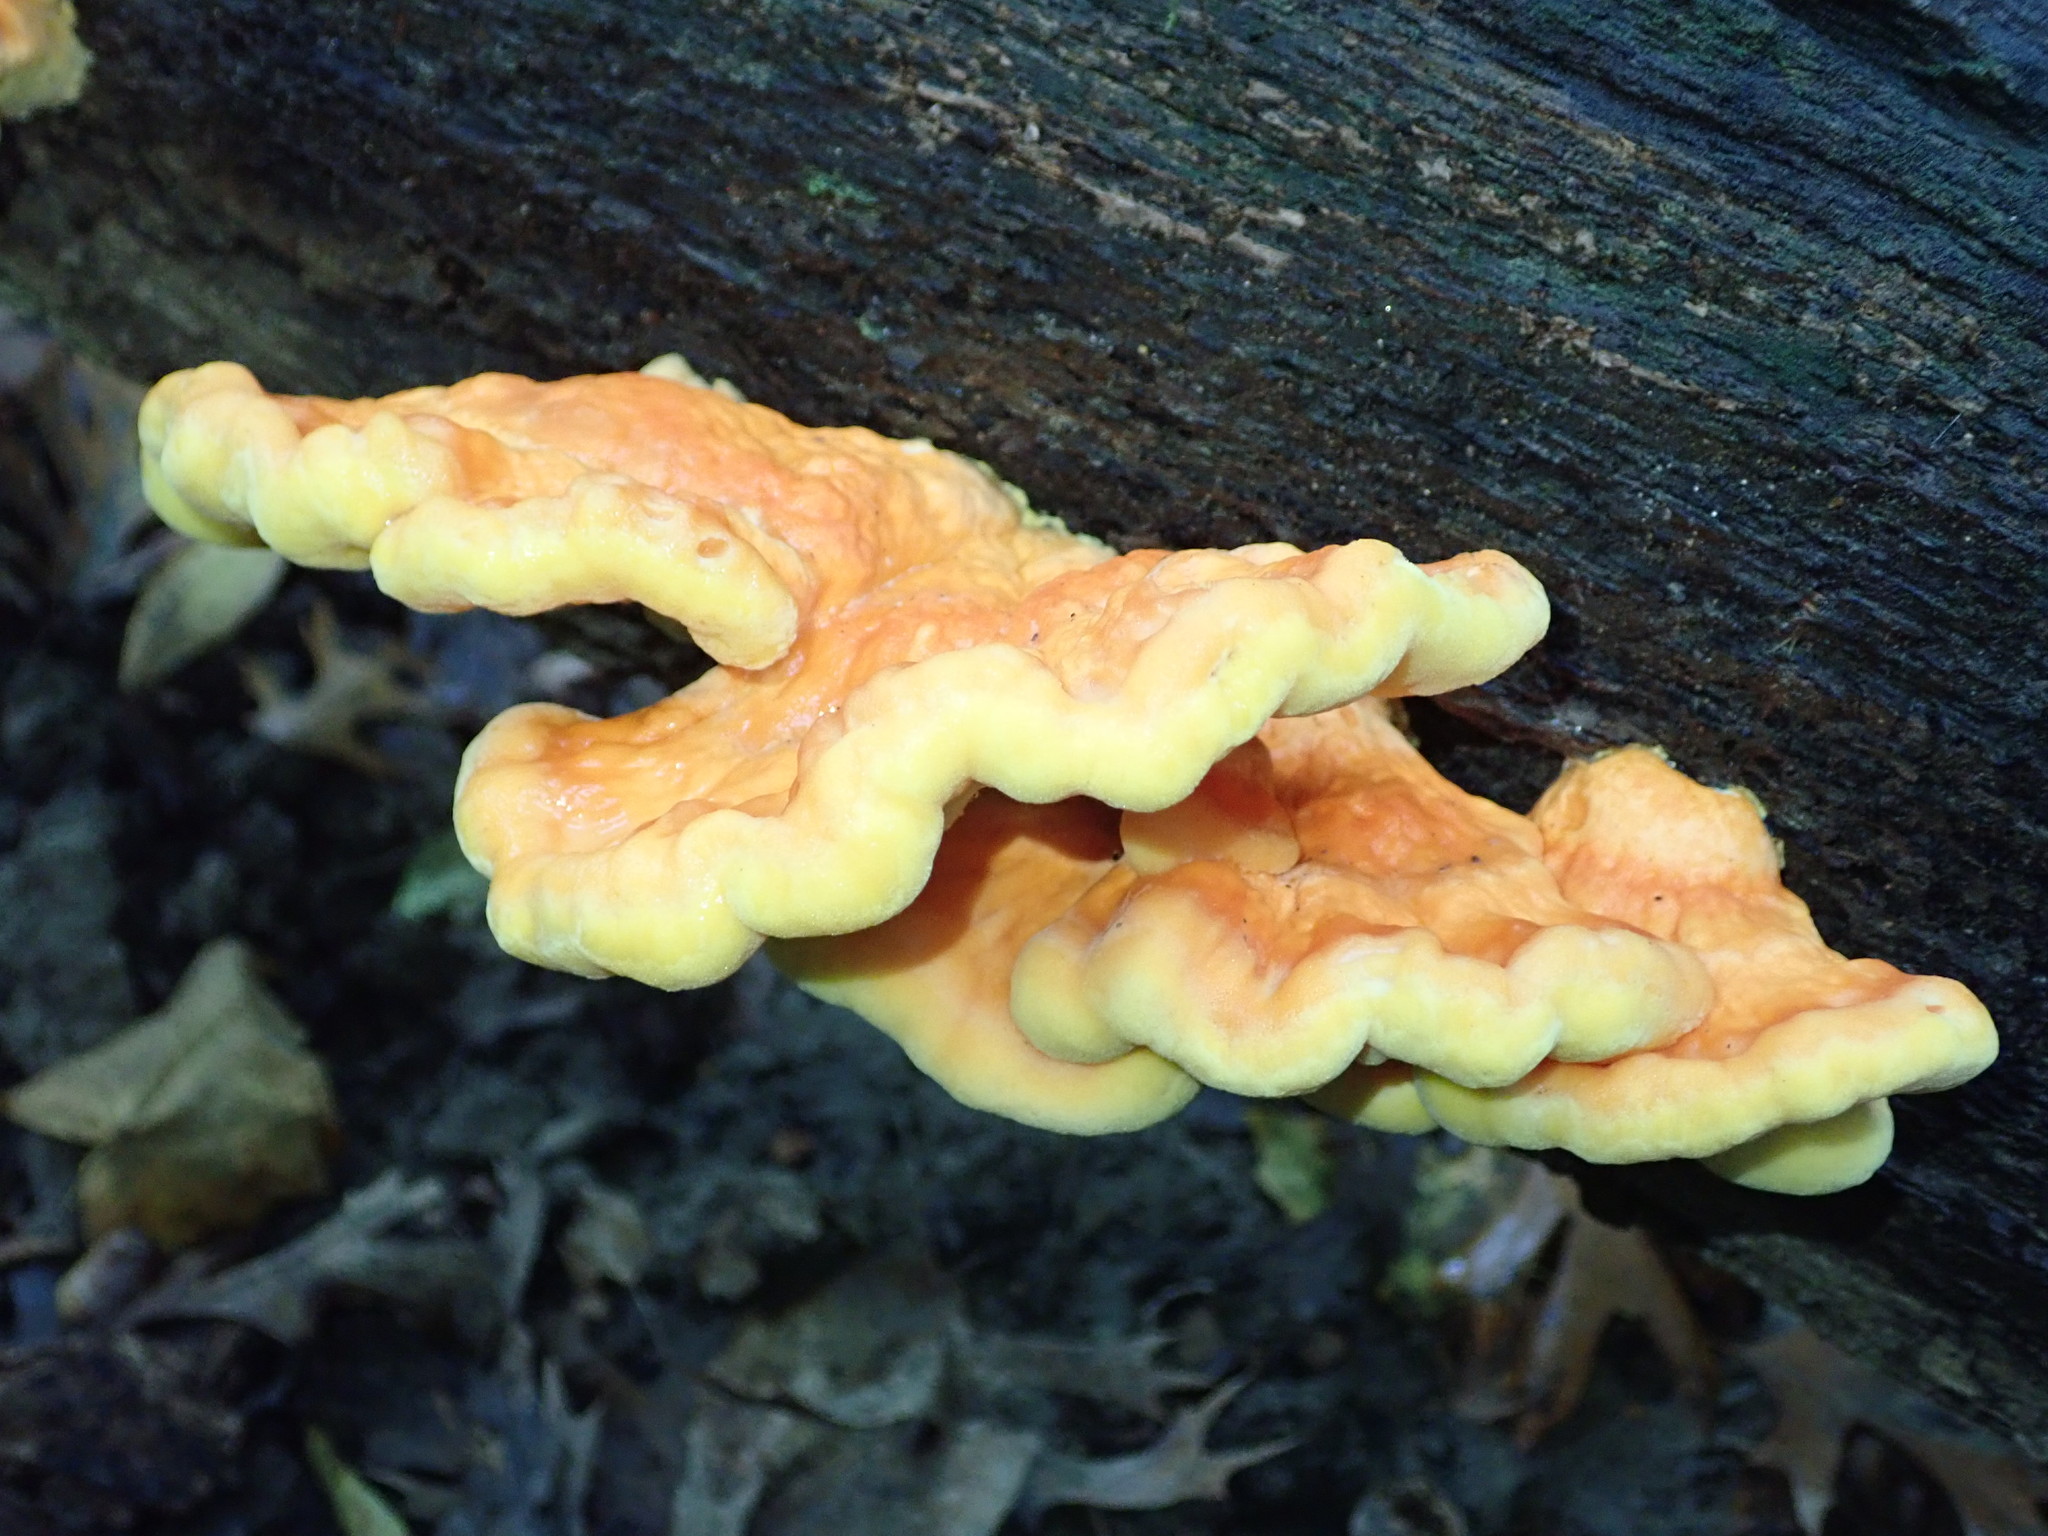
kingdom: Fungi
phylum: Basidiomycota
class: Agaricomycetes
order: Polyporales
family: Laetiporaceae
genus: Laetiporus
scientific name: Laetiporus sulphureus
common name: Chicken of the woods
